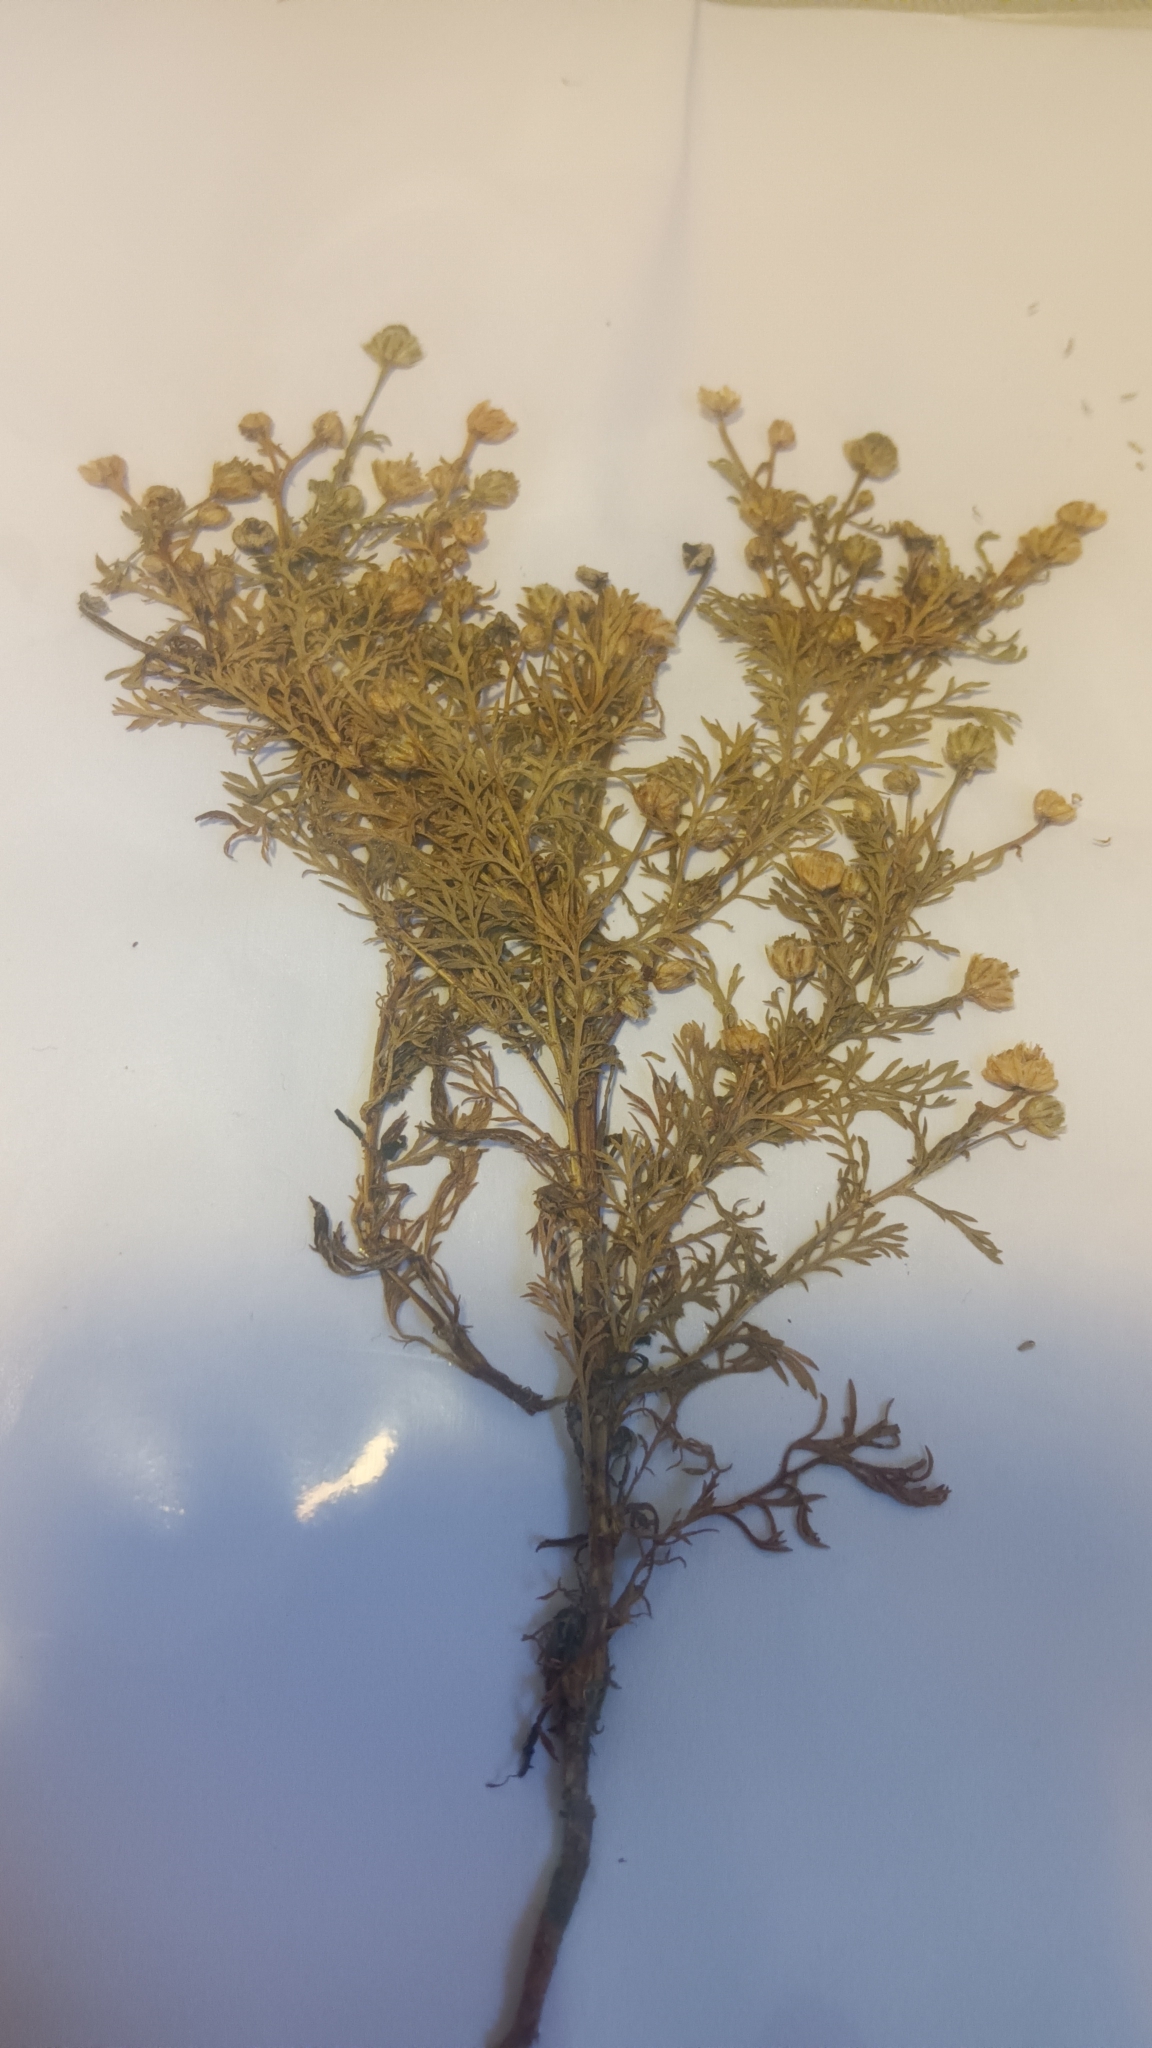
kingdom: Plantae
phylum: Tracheophyta
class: Magnoliopsida
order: Asterales
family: Asteraceae
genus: Matricaria
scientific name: Matricaria discoidea
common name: Disc mayweed
